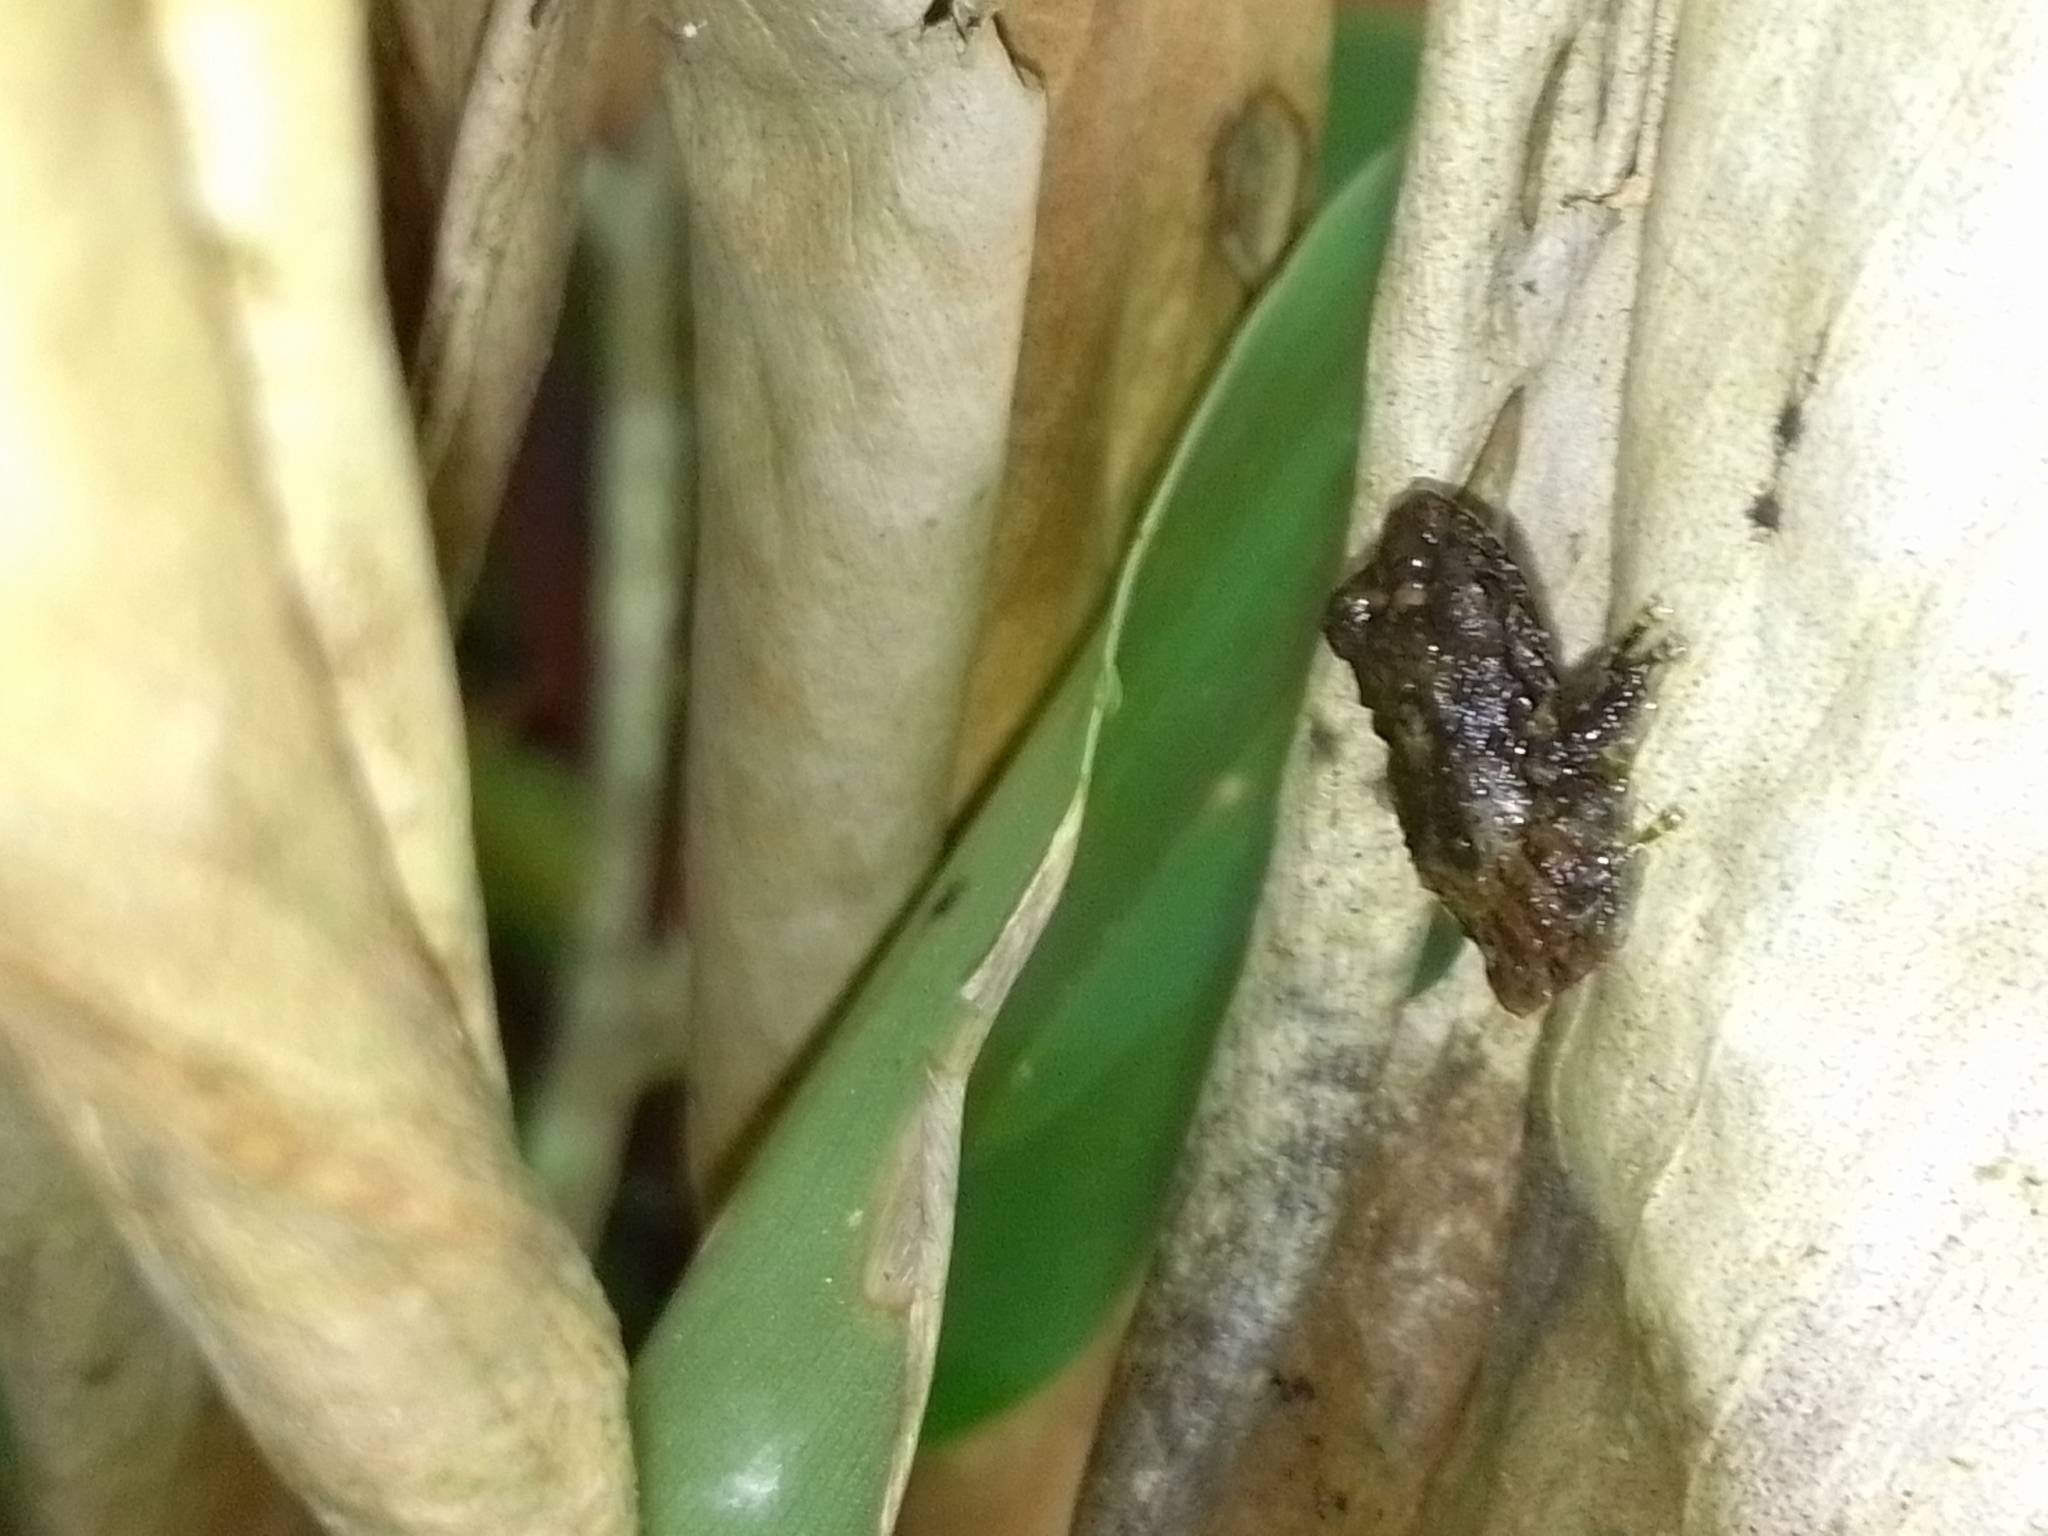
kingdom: Animalia
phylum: Chordata
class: Amphibia
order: Anura
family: Craugastoridae
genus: Pristimantis
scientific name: Pristimantis cruentus
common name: Chiriqui robber frog
